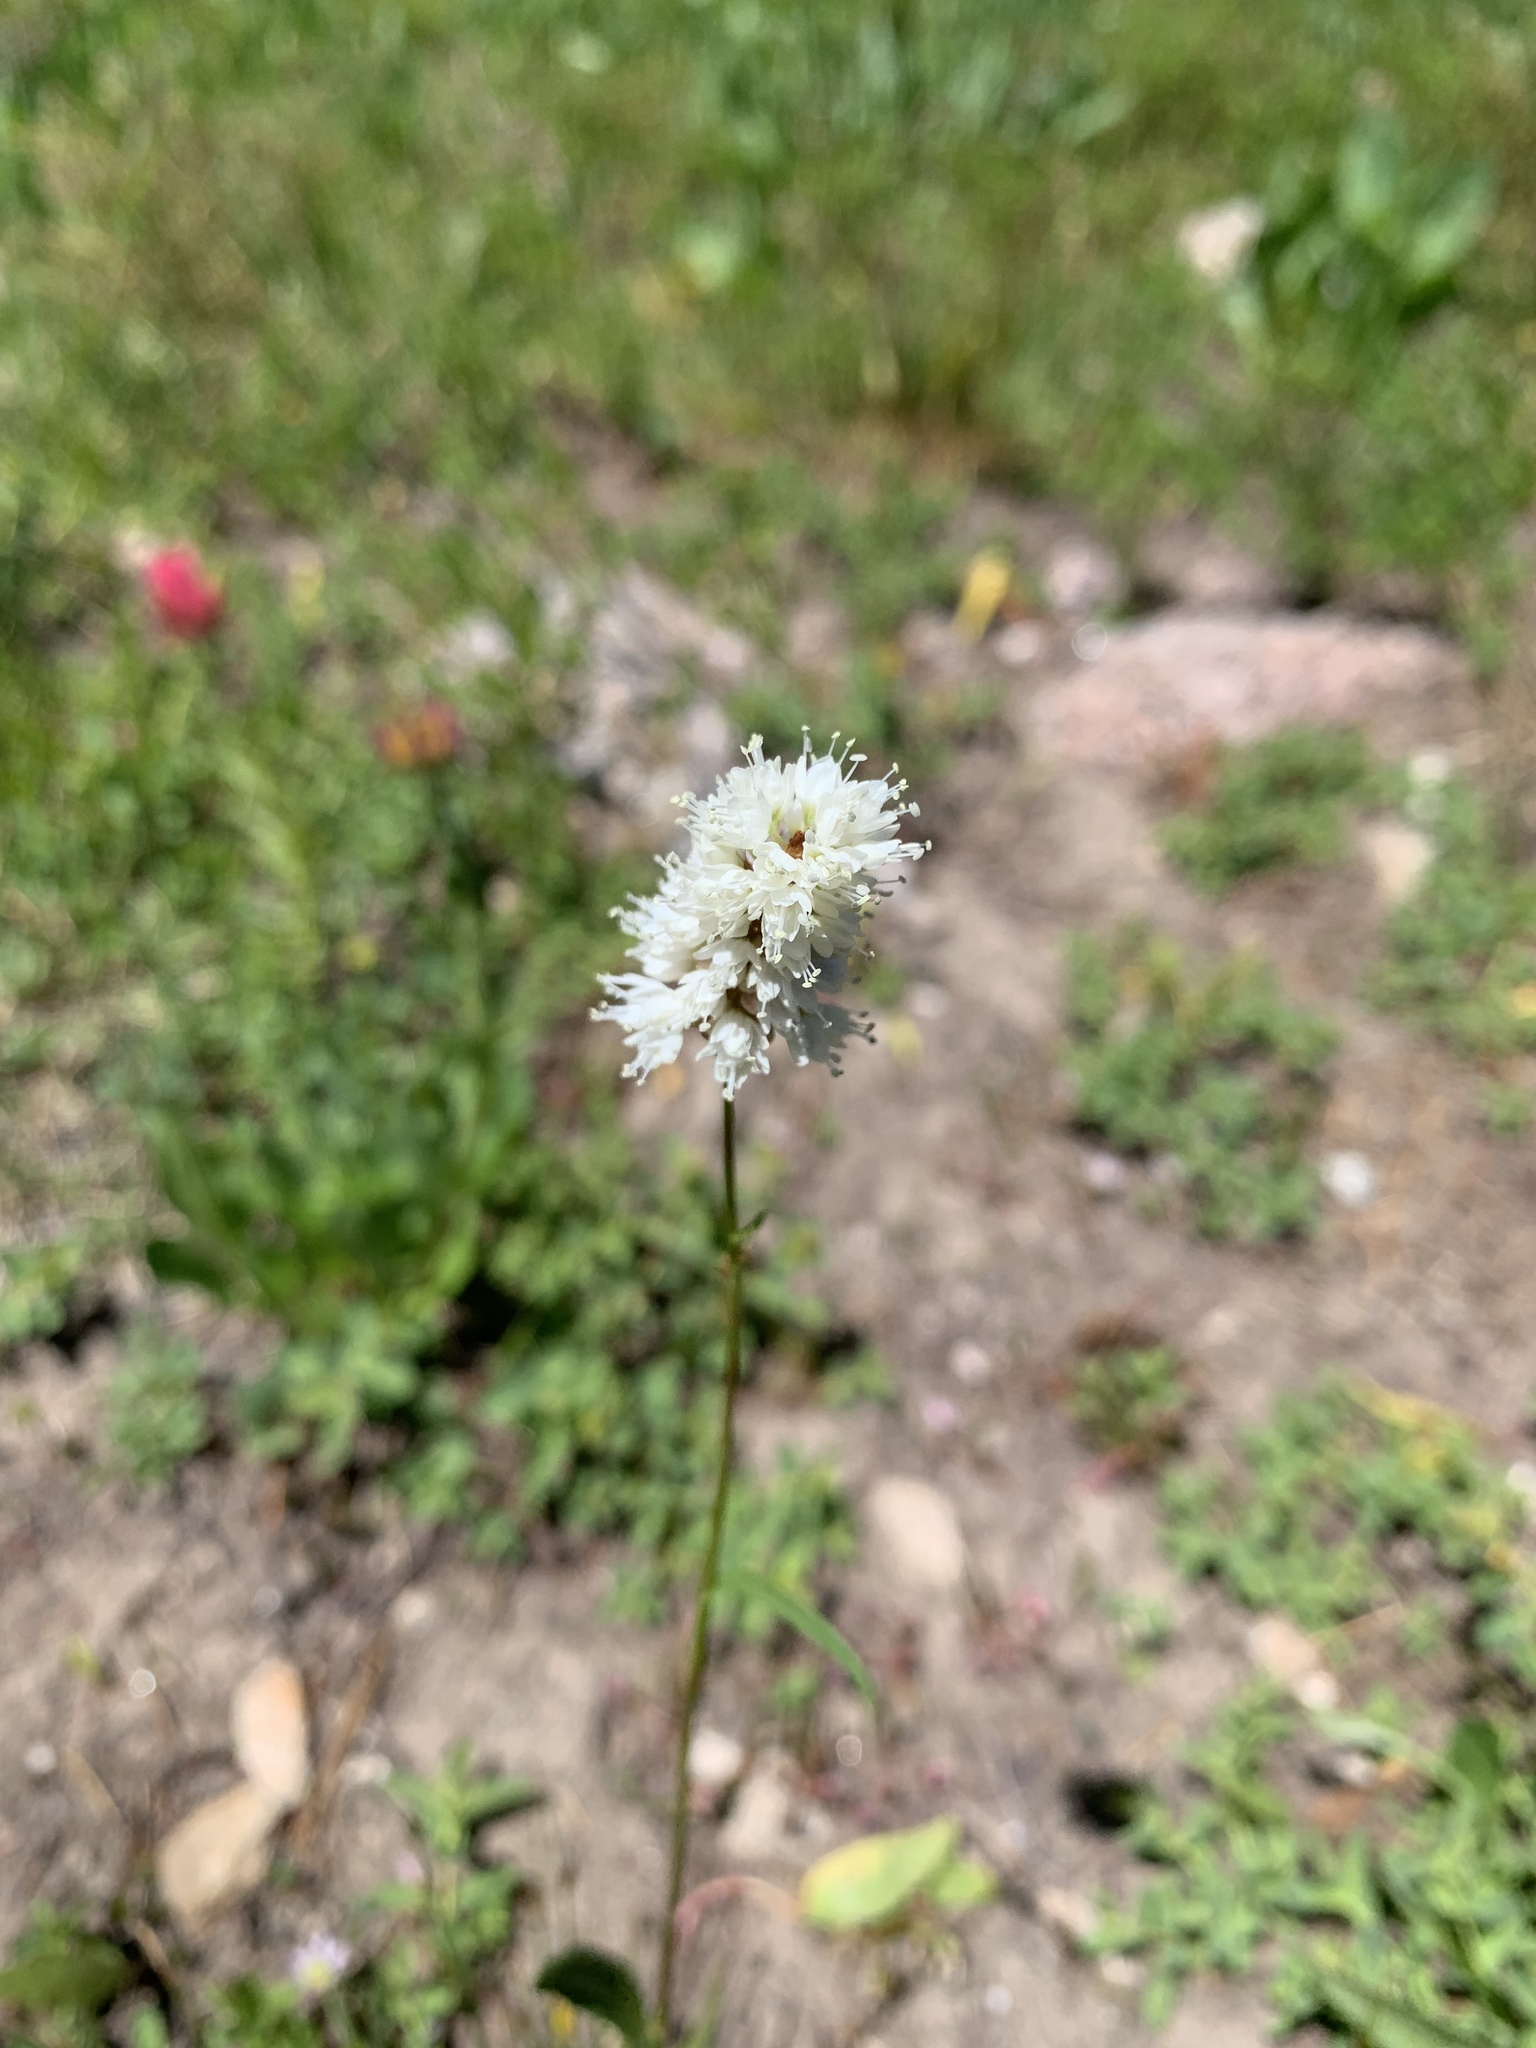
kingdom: Plantae
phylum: Tracheophyta
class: Magnoliopsida
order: Caryophyllales
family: Polygonaceae
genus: Bistorta
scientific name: Bistorta bistortoides
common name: American bistort
